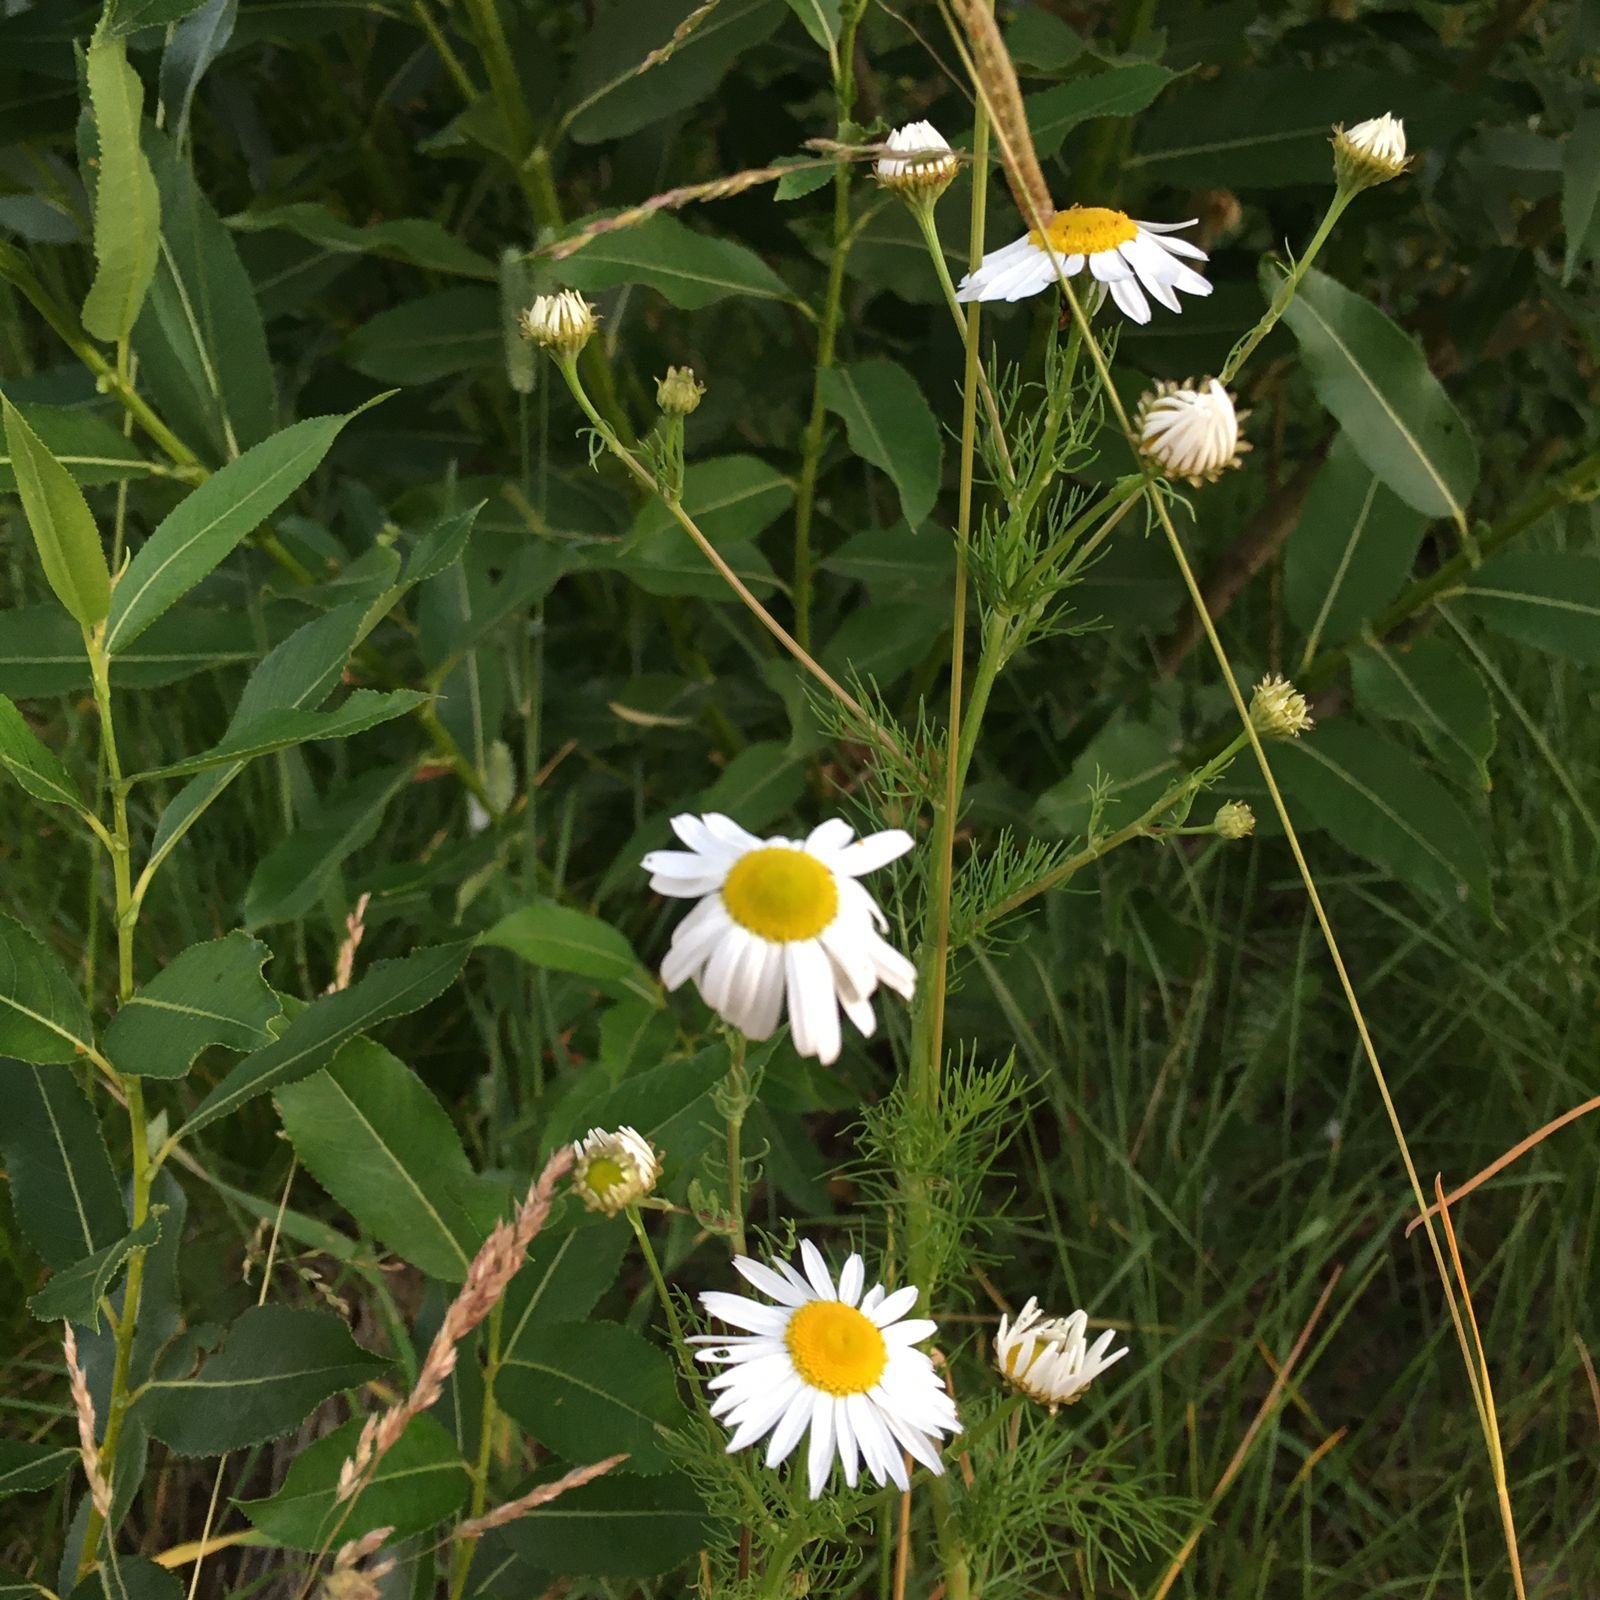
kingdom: Plantae
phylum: Tracheophyta
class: Magnoliopsida
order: Asterales
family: Asteraceae
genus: Tripleurospermum
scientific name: Tripleurospermum inodorum
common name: Scentless mayweed
